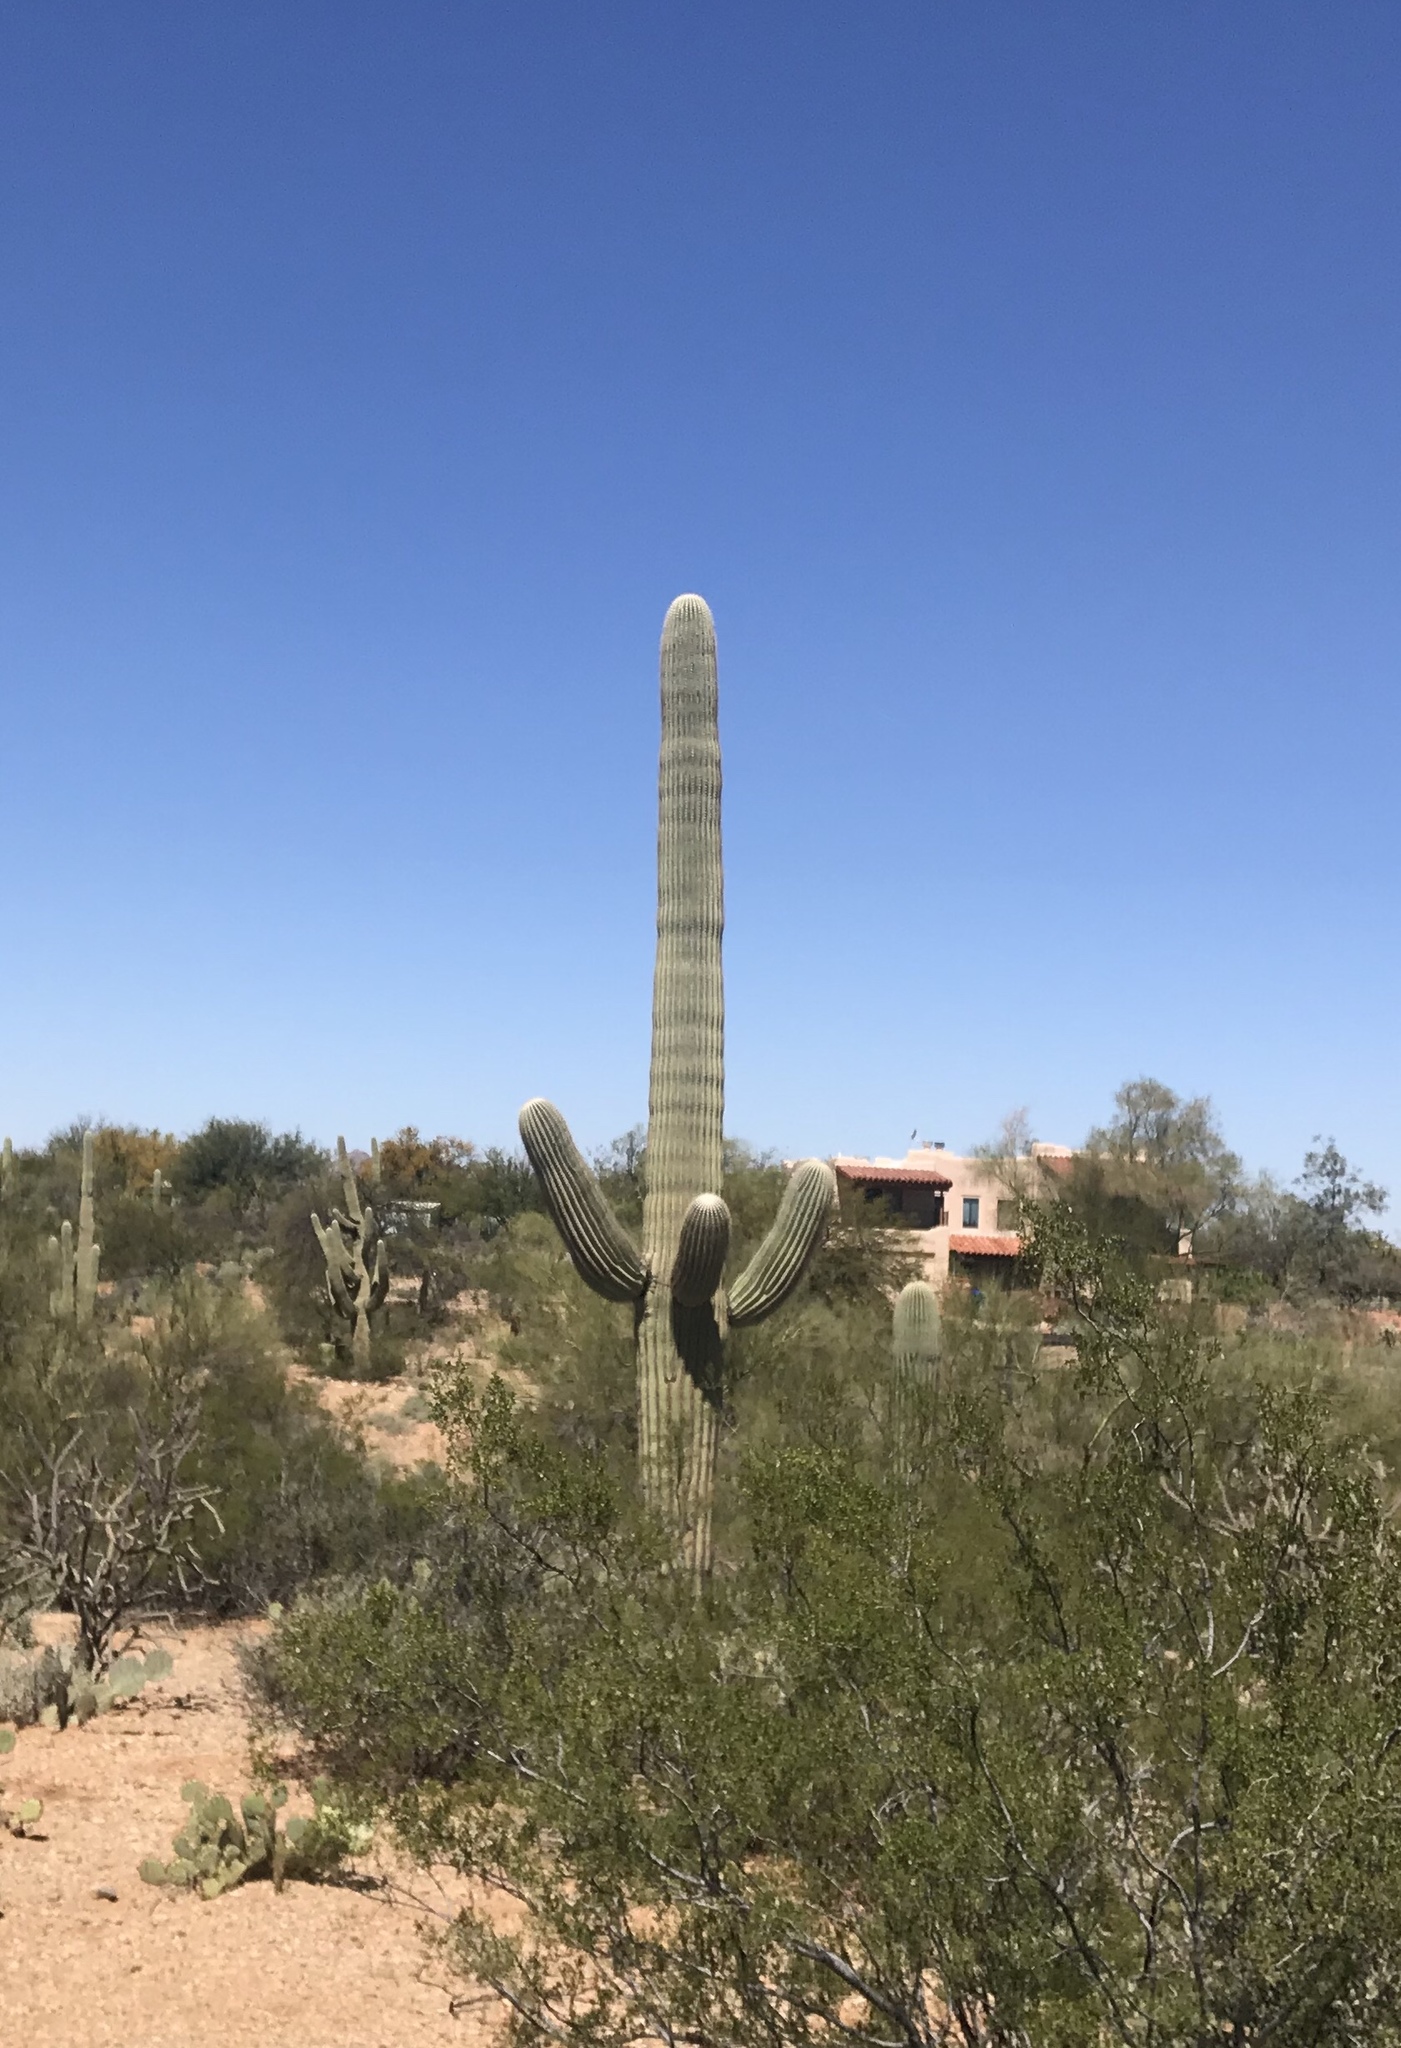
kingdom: Plantae
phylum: Tracheophyta
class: Magnoliopsida
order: Caryophyllales
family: Cactaceae
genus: Carnegiea
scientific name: Carnegiea gigantea
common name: Saguaro
